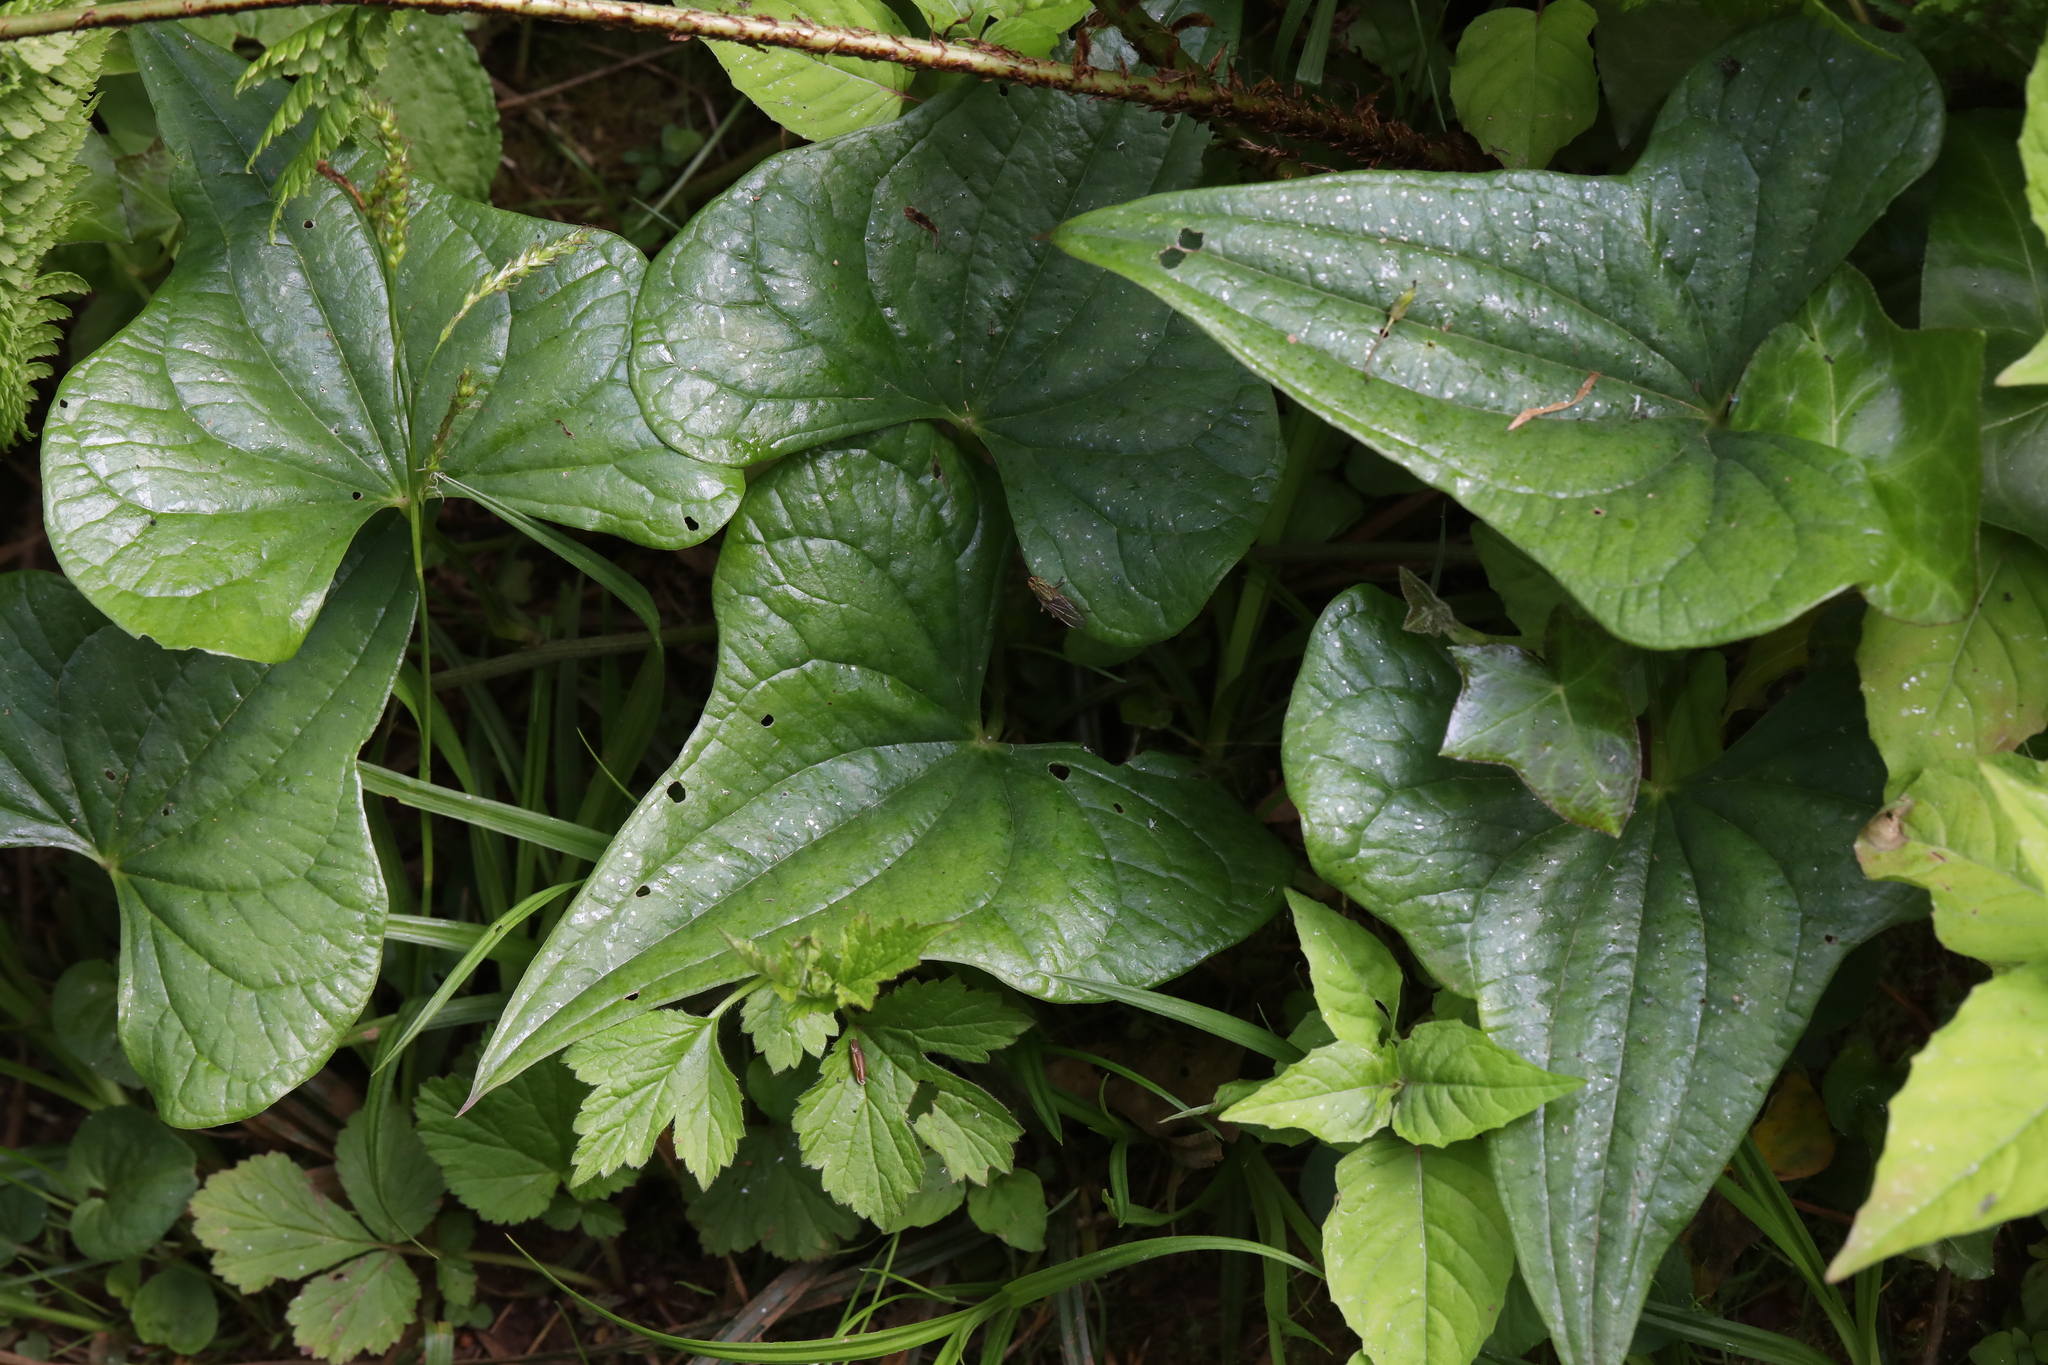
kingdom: Plantae
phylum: Tracheophyta
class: Liliopsida
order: Dioscoreales
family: Dioscoreaceae
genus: Dioscorea
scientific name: Dioscorea communis
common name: Black-bindweed
